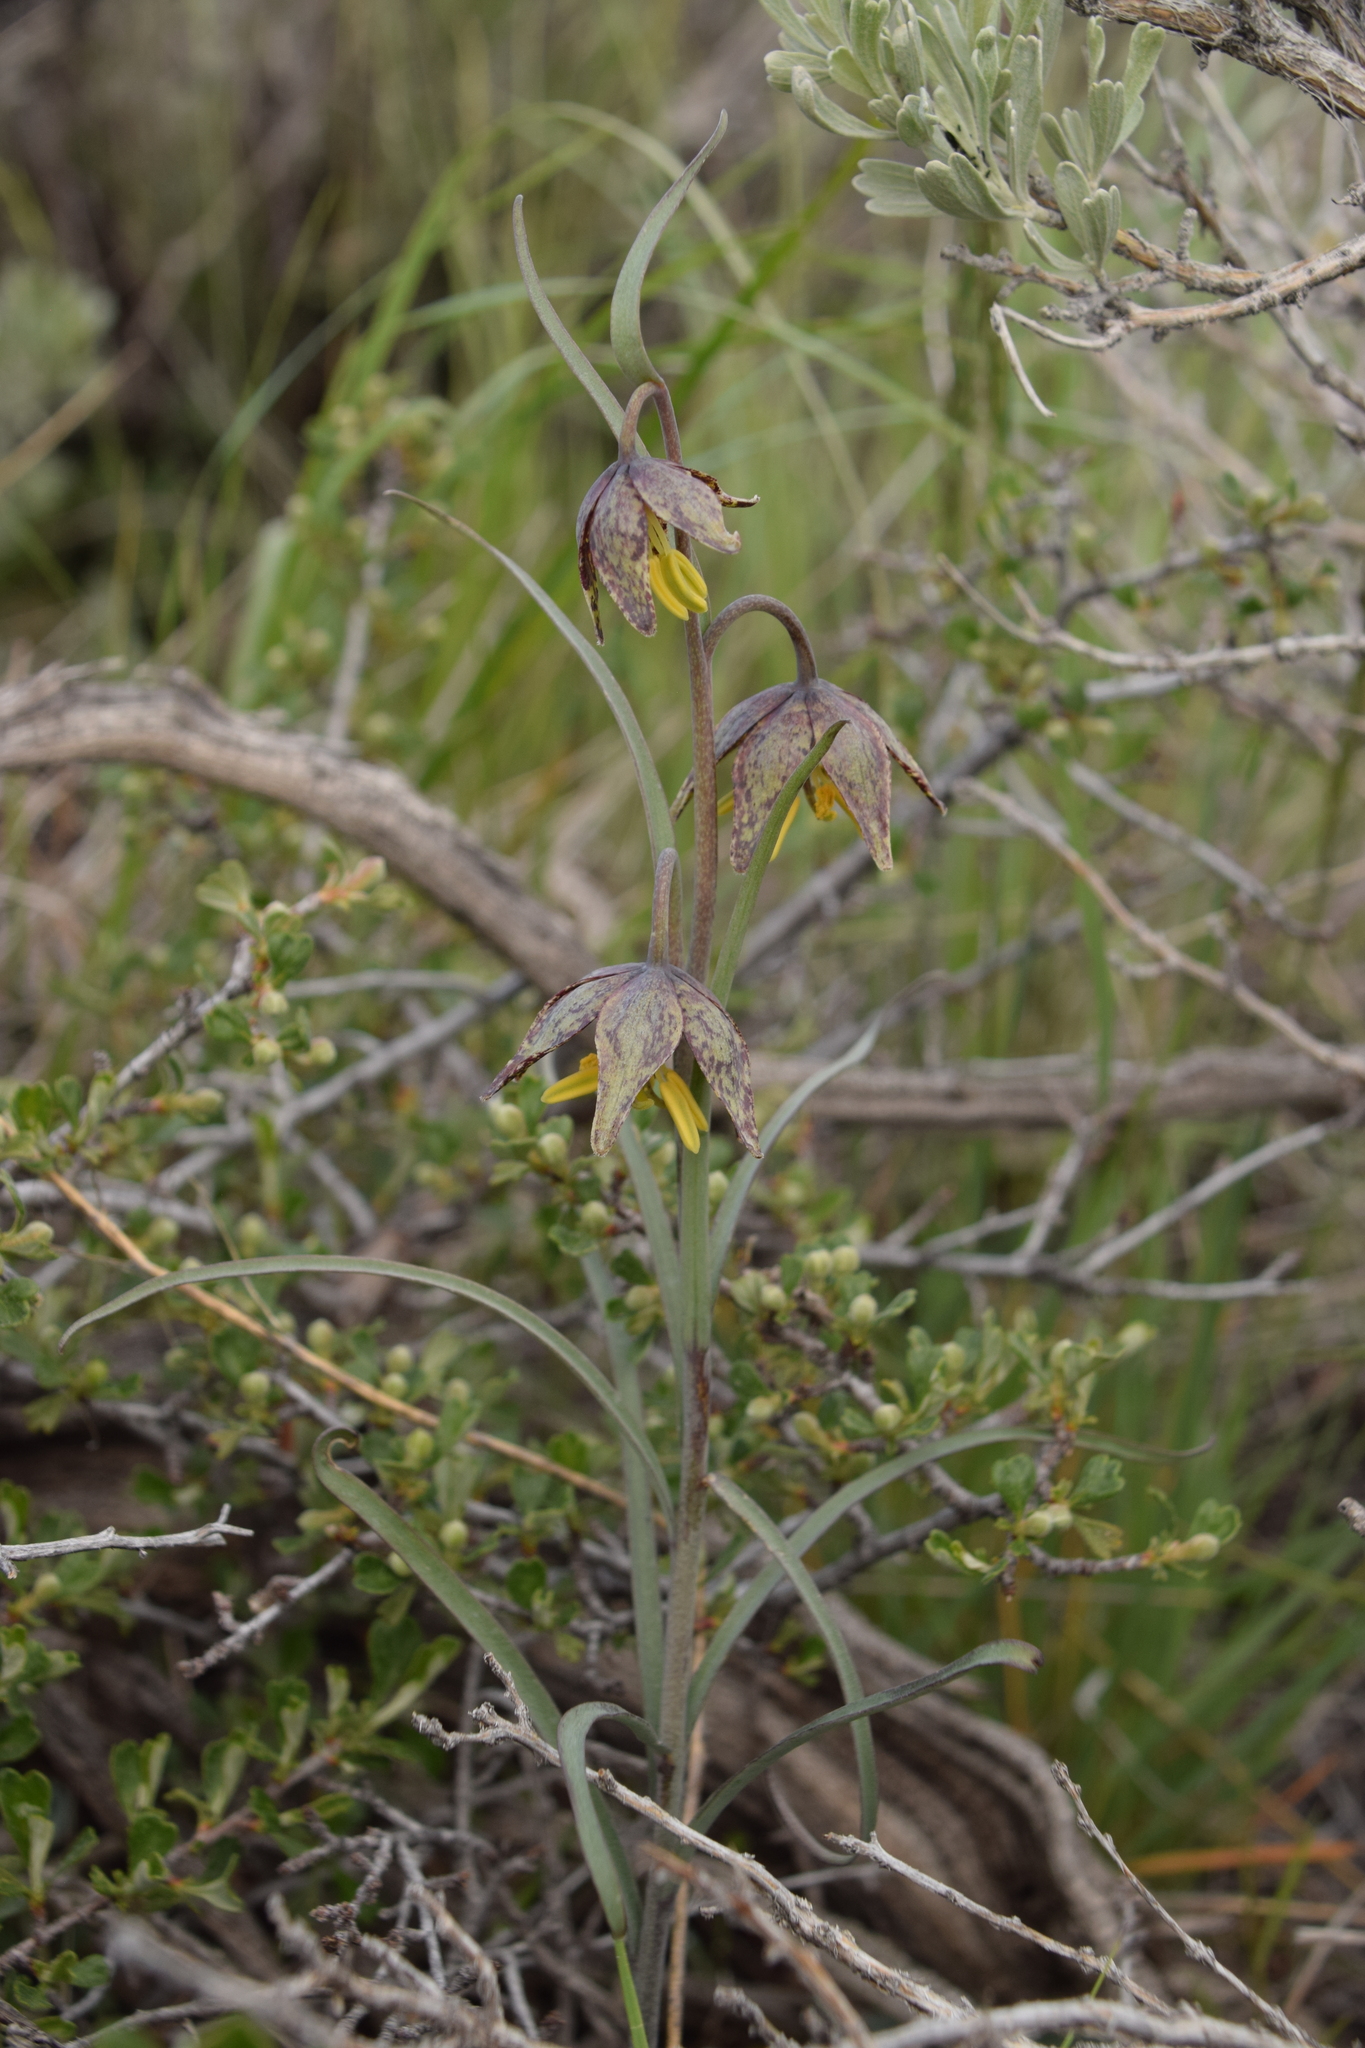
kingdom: Plantae
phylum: Tracheophyta
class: Liliopsida
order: Liliales
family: Liliaceae
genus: Fritillaria
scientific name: Fritillaria atropurpurea
